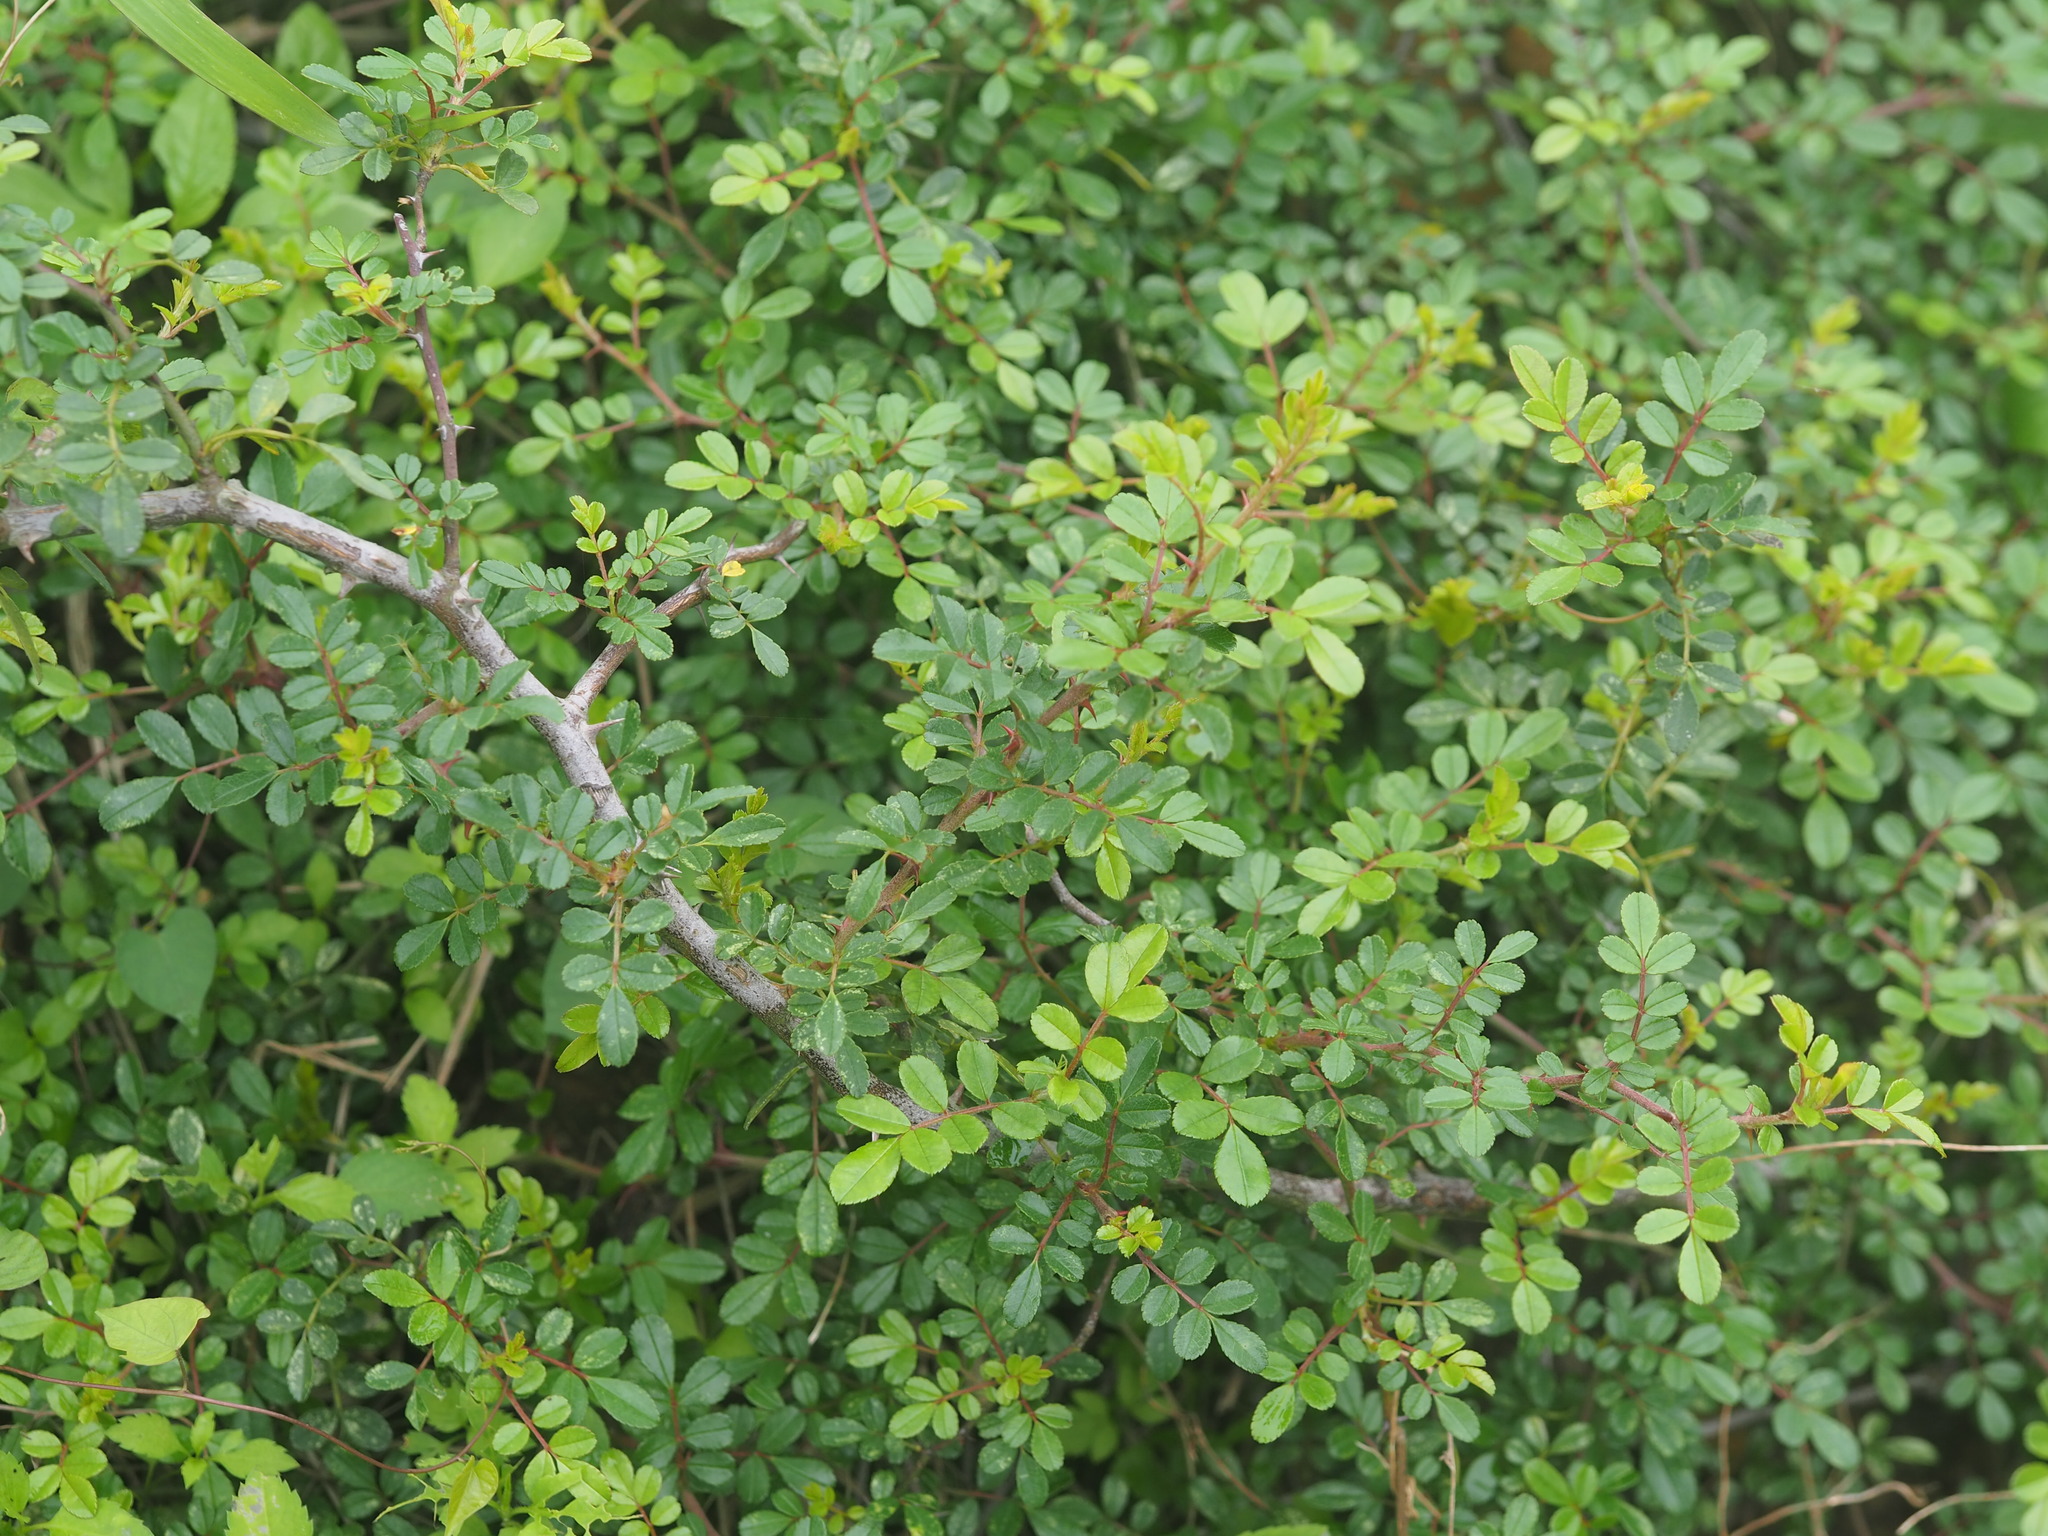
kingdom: Plantae
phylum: Tracheophyta
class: Magnoliopsida
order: Rosales
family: Rosaceae
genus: Rosa
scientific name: Rosa bracteata
